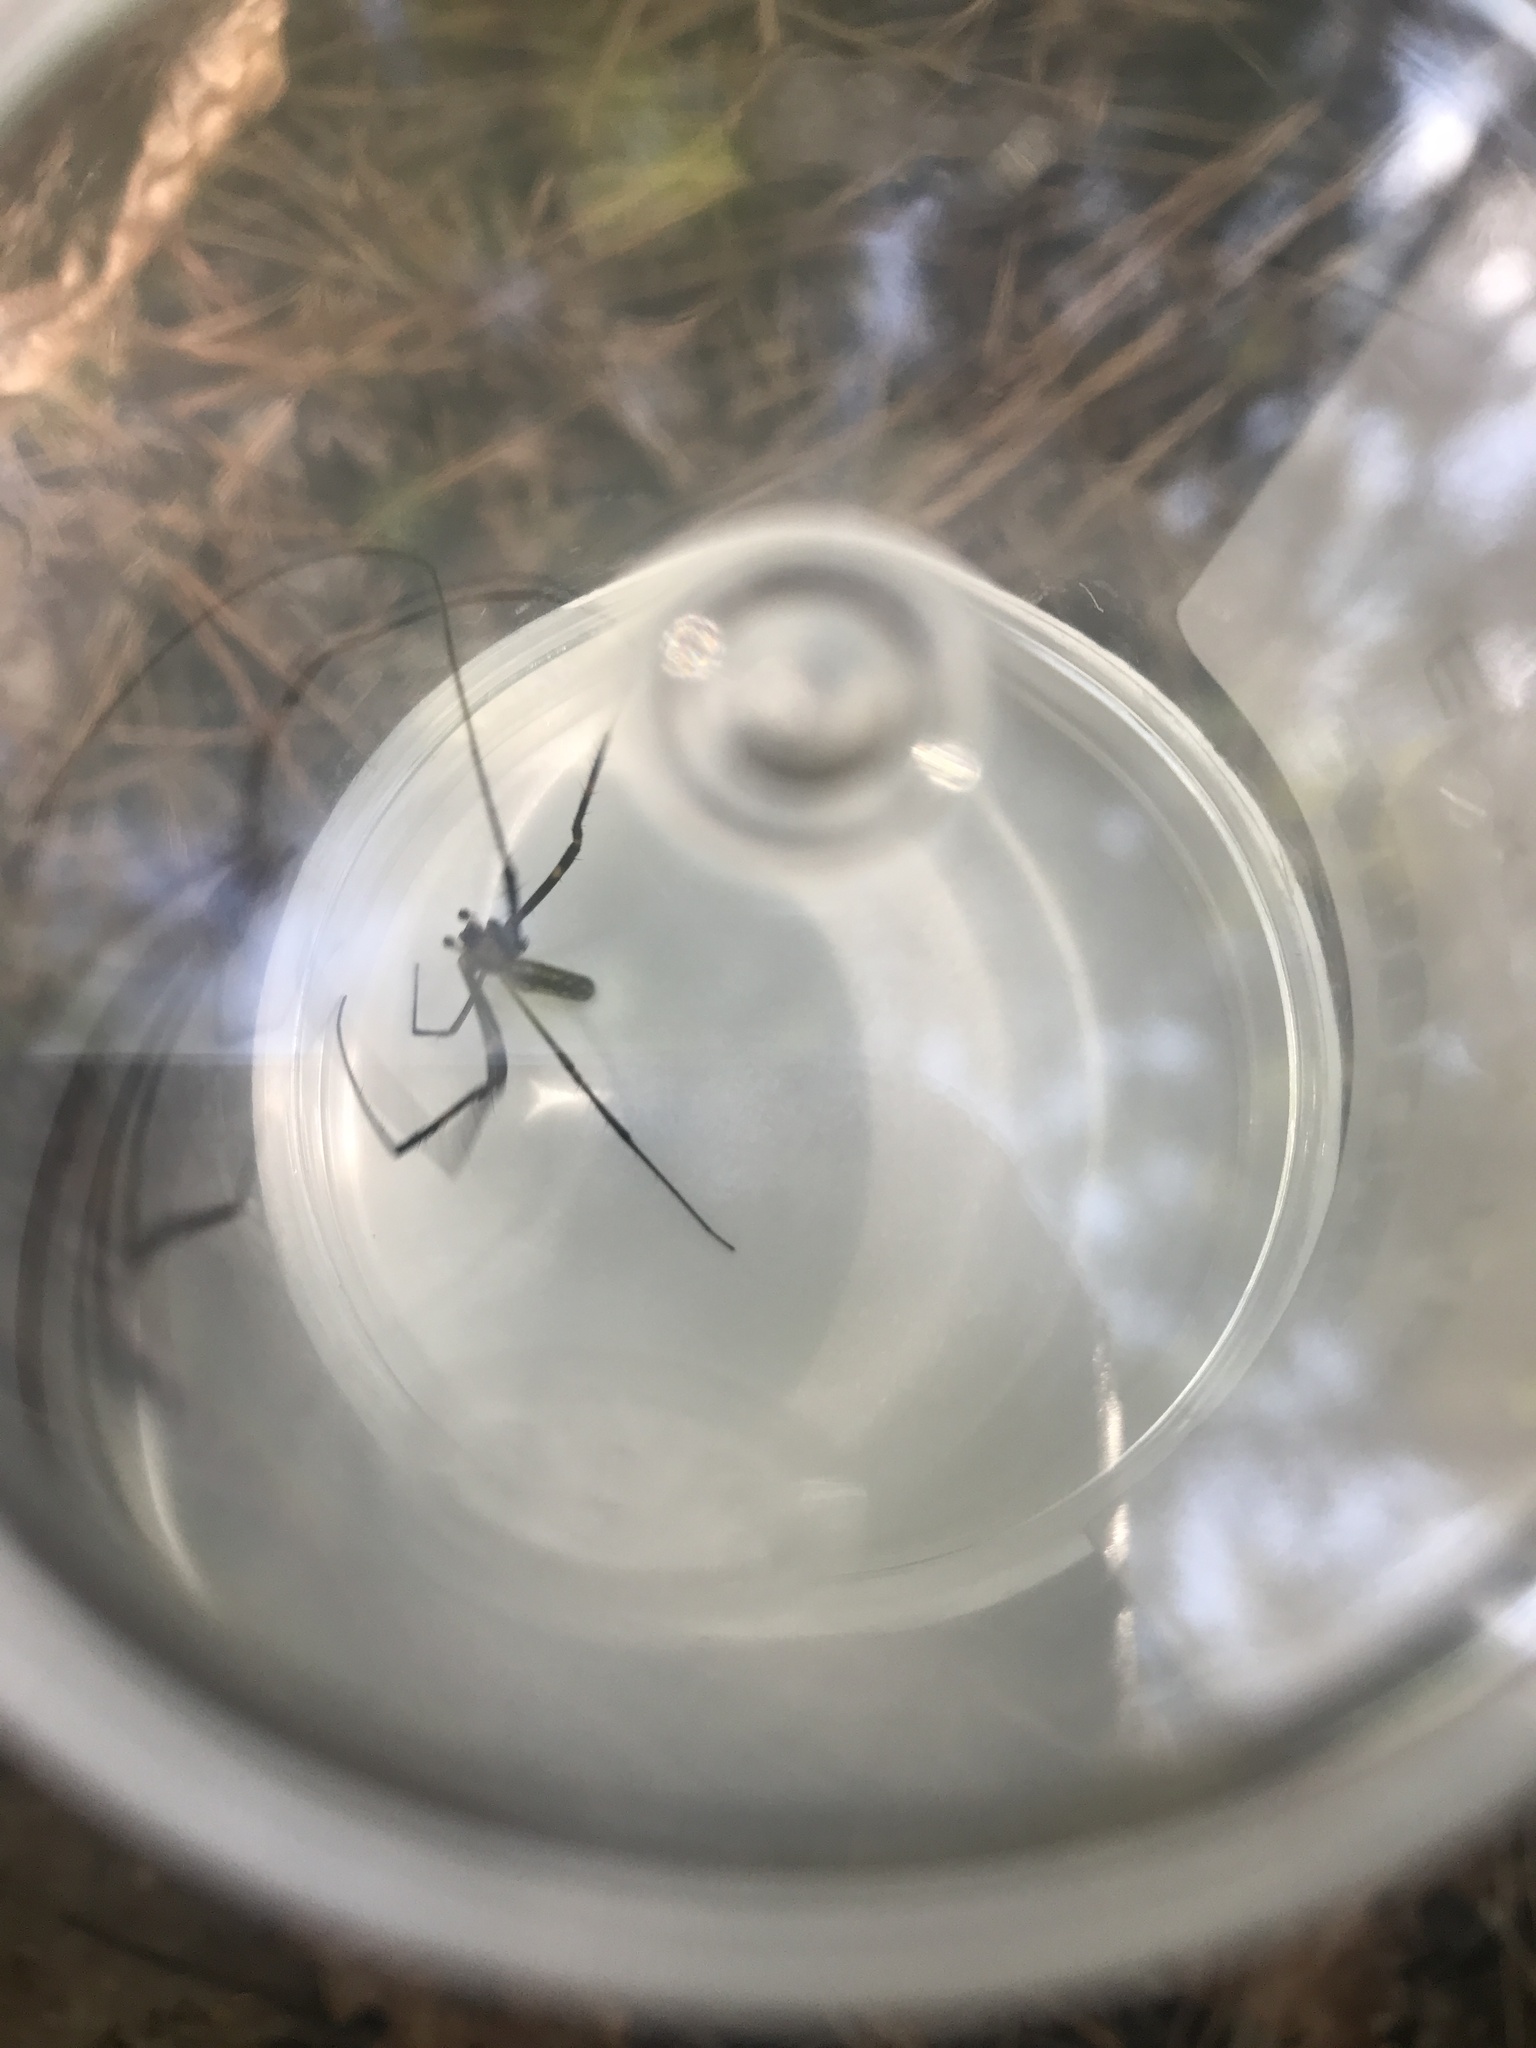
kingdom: Animalia
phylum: Arthropoda
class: Arachnida
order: Araneae
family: Araneidae
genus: Trichonephila
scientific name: Trichonephila clavata
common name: Jorō spider
